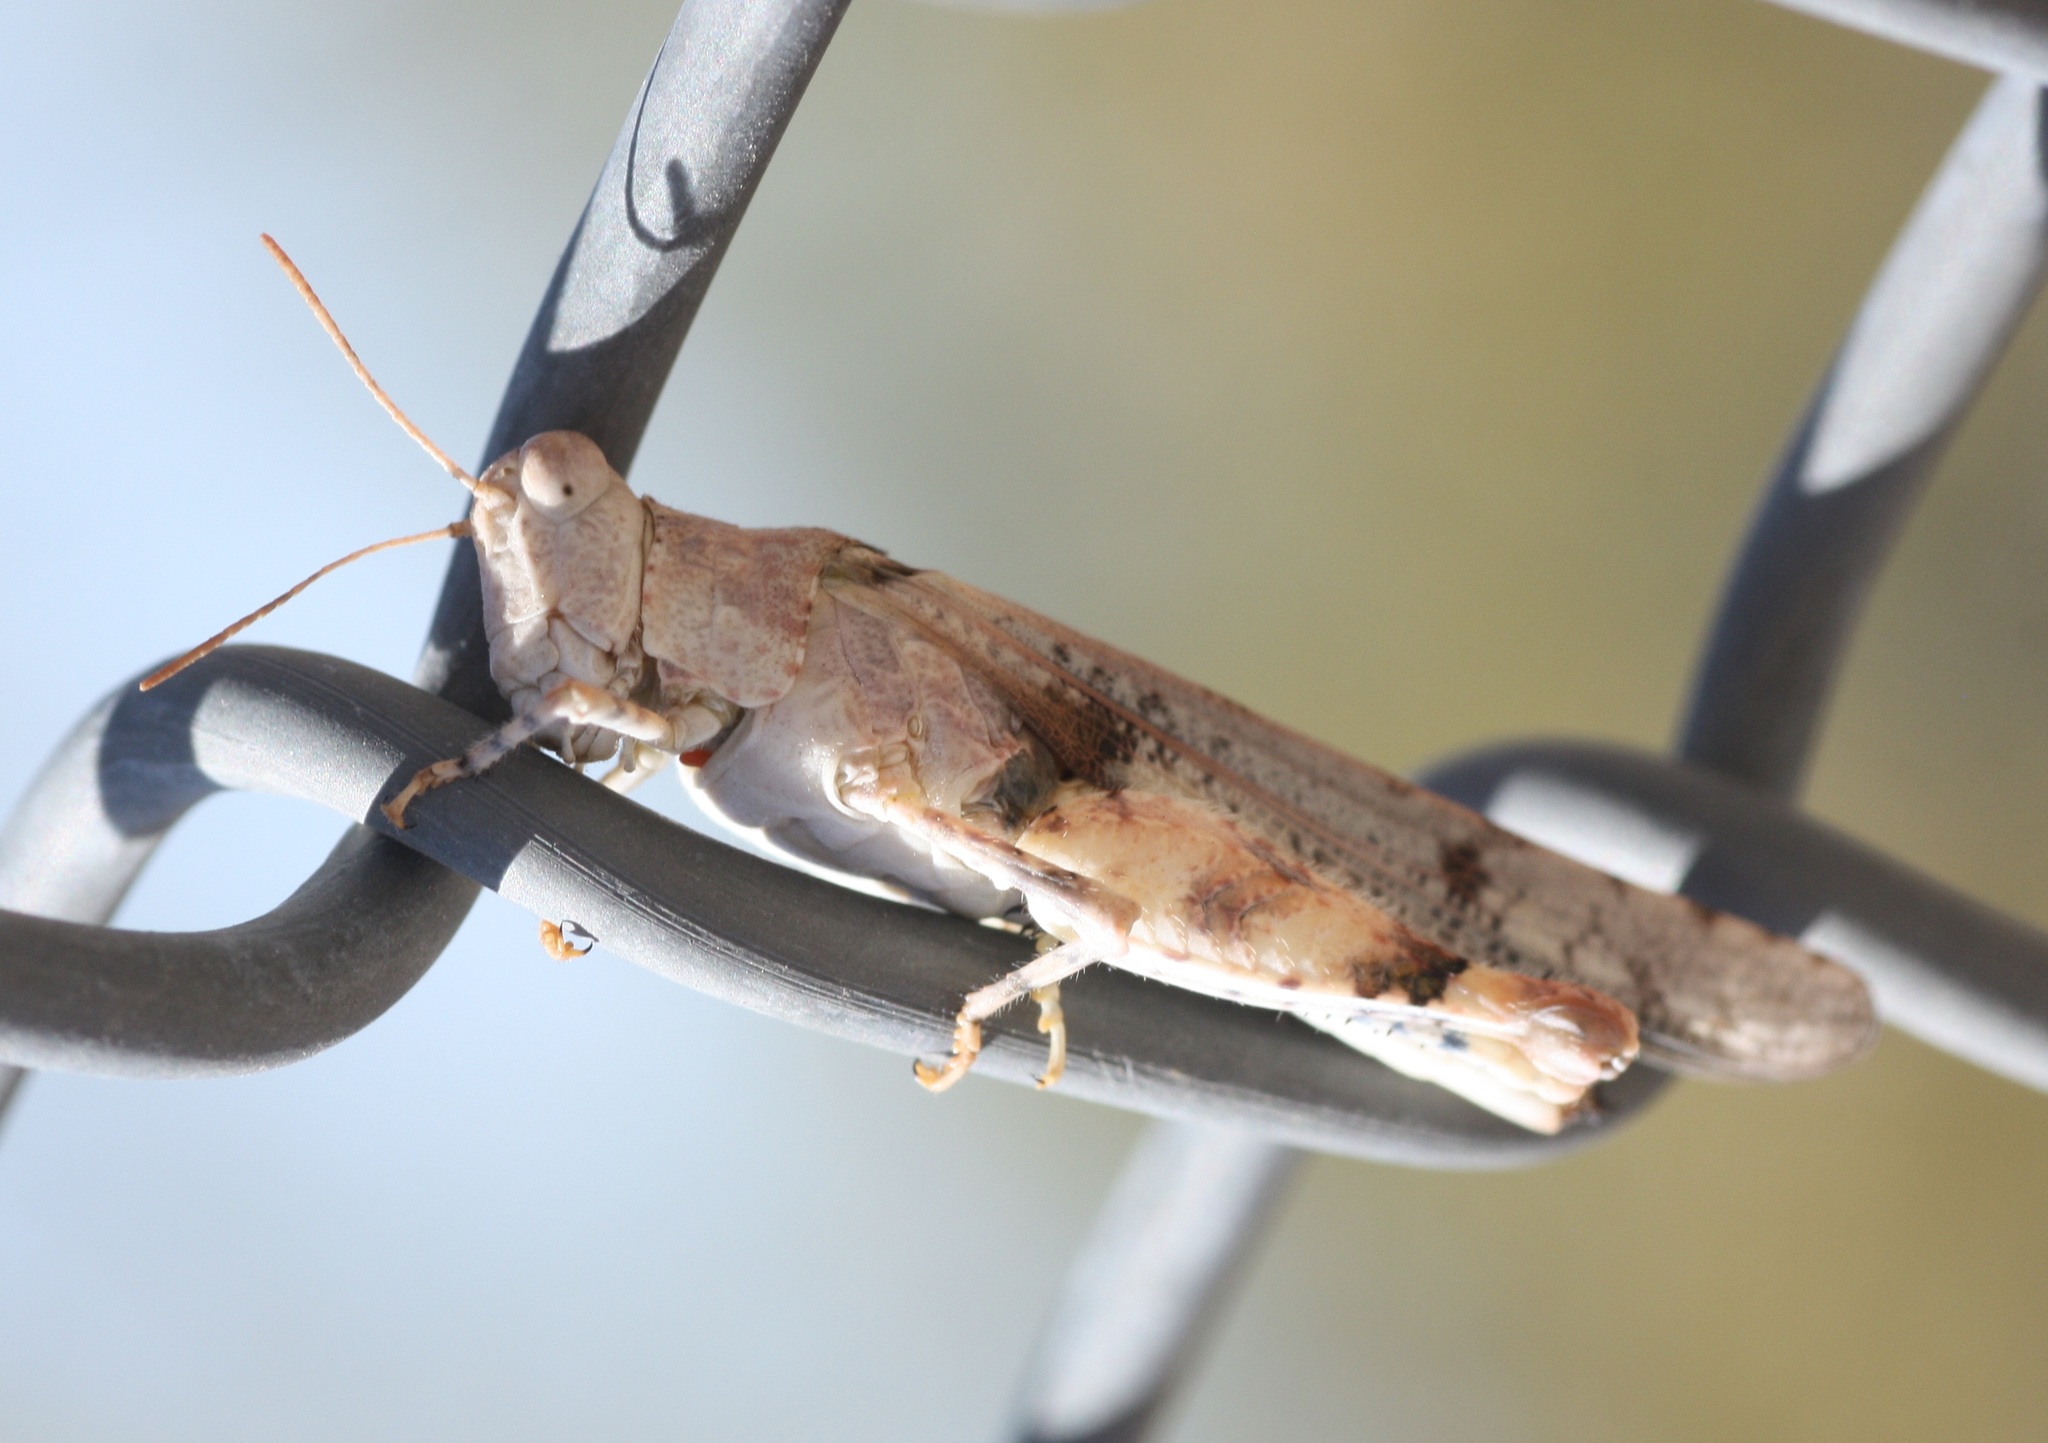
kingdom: Animalia
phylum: Arthropoda
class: Insecta
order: Orthoptera
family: Acrididae
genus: Cibolacris
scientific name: Cibolacris parviceps
